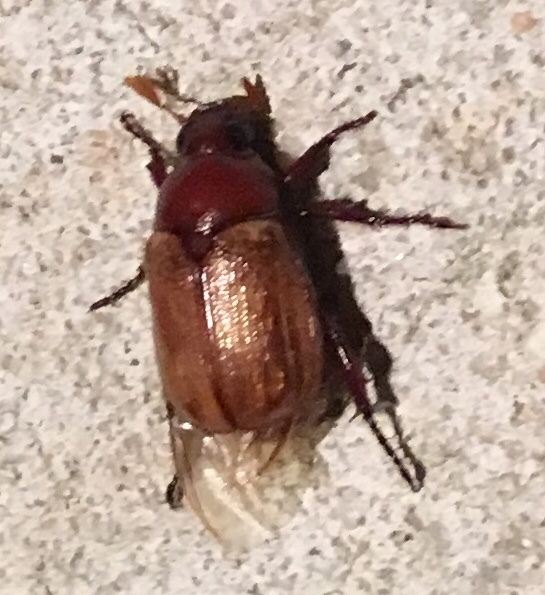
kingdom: Animalia
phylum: Arthropoda
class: Insecta
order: Coleoptera
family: Scarabaeidae
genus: Paranomala
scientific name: Paranomala flavipennis
